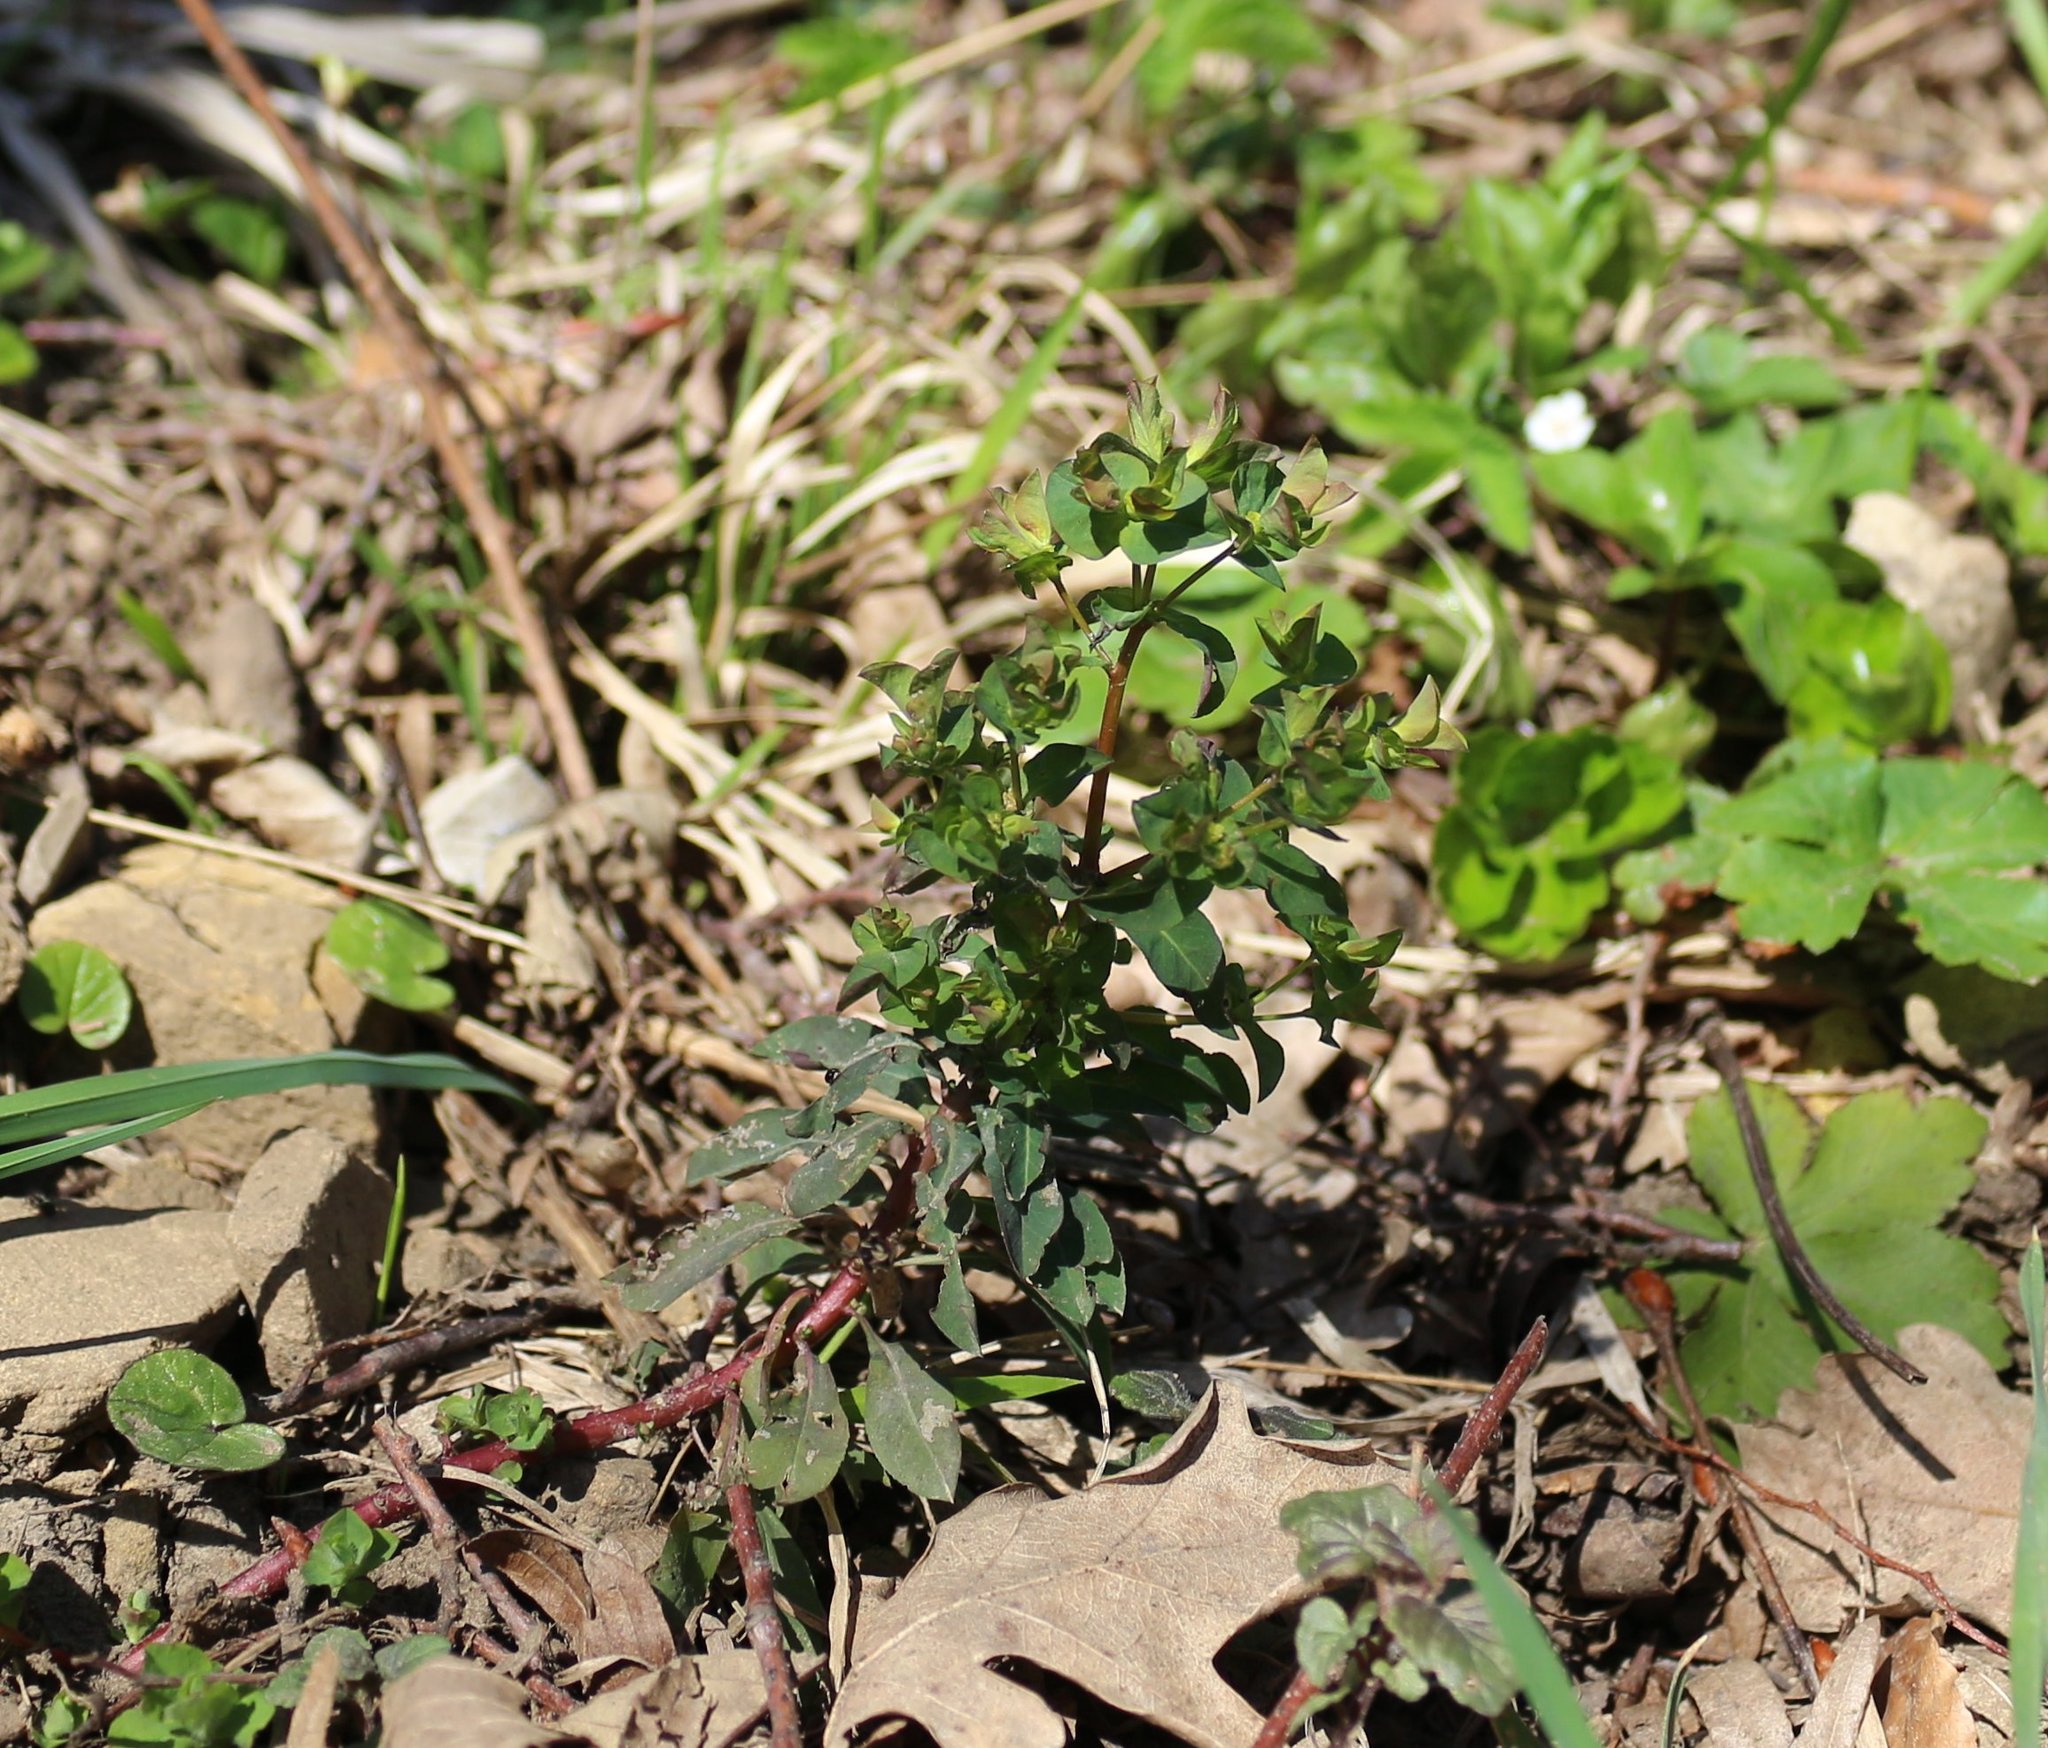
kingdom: Plantae
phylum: Tracheophyta
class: Magnoliopsida
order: Malpighiales
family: Euphorbiaceae
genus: Euphorbia
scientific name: Euphorbia stricta
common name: Upright spurge
